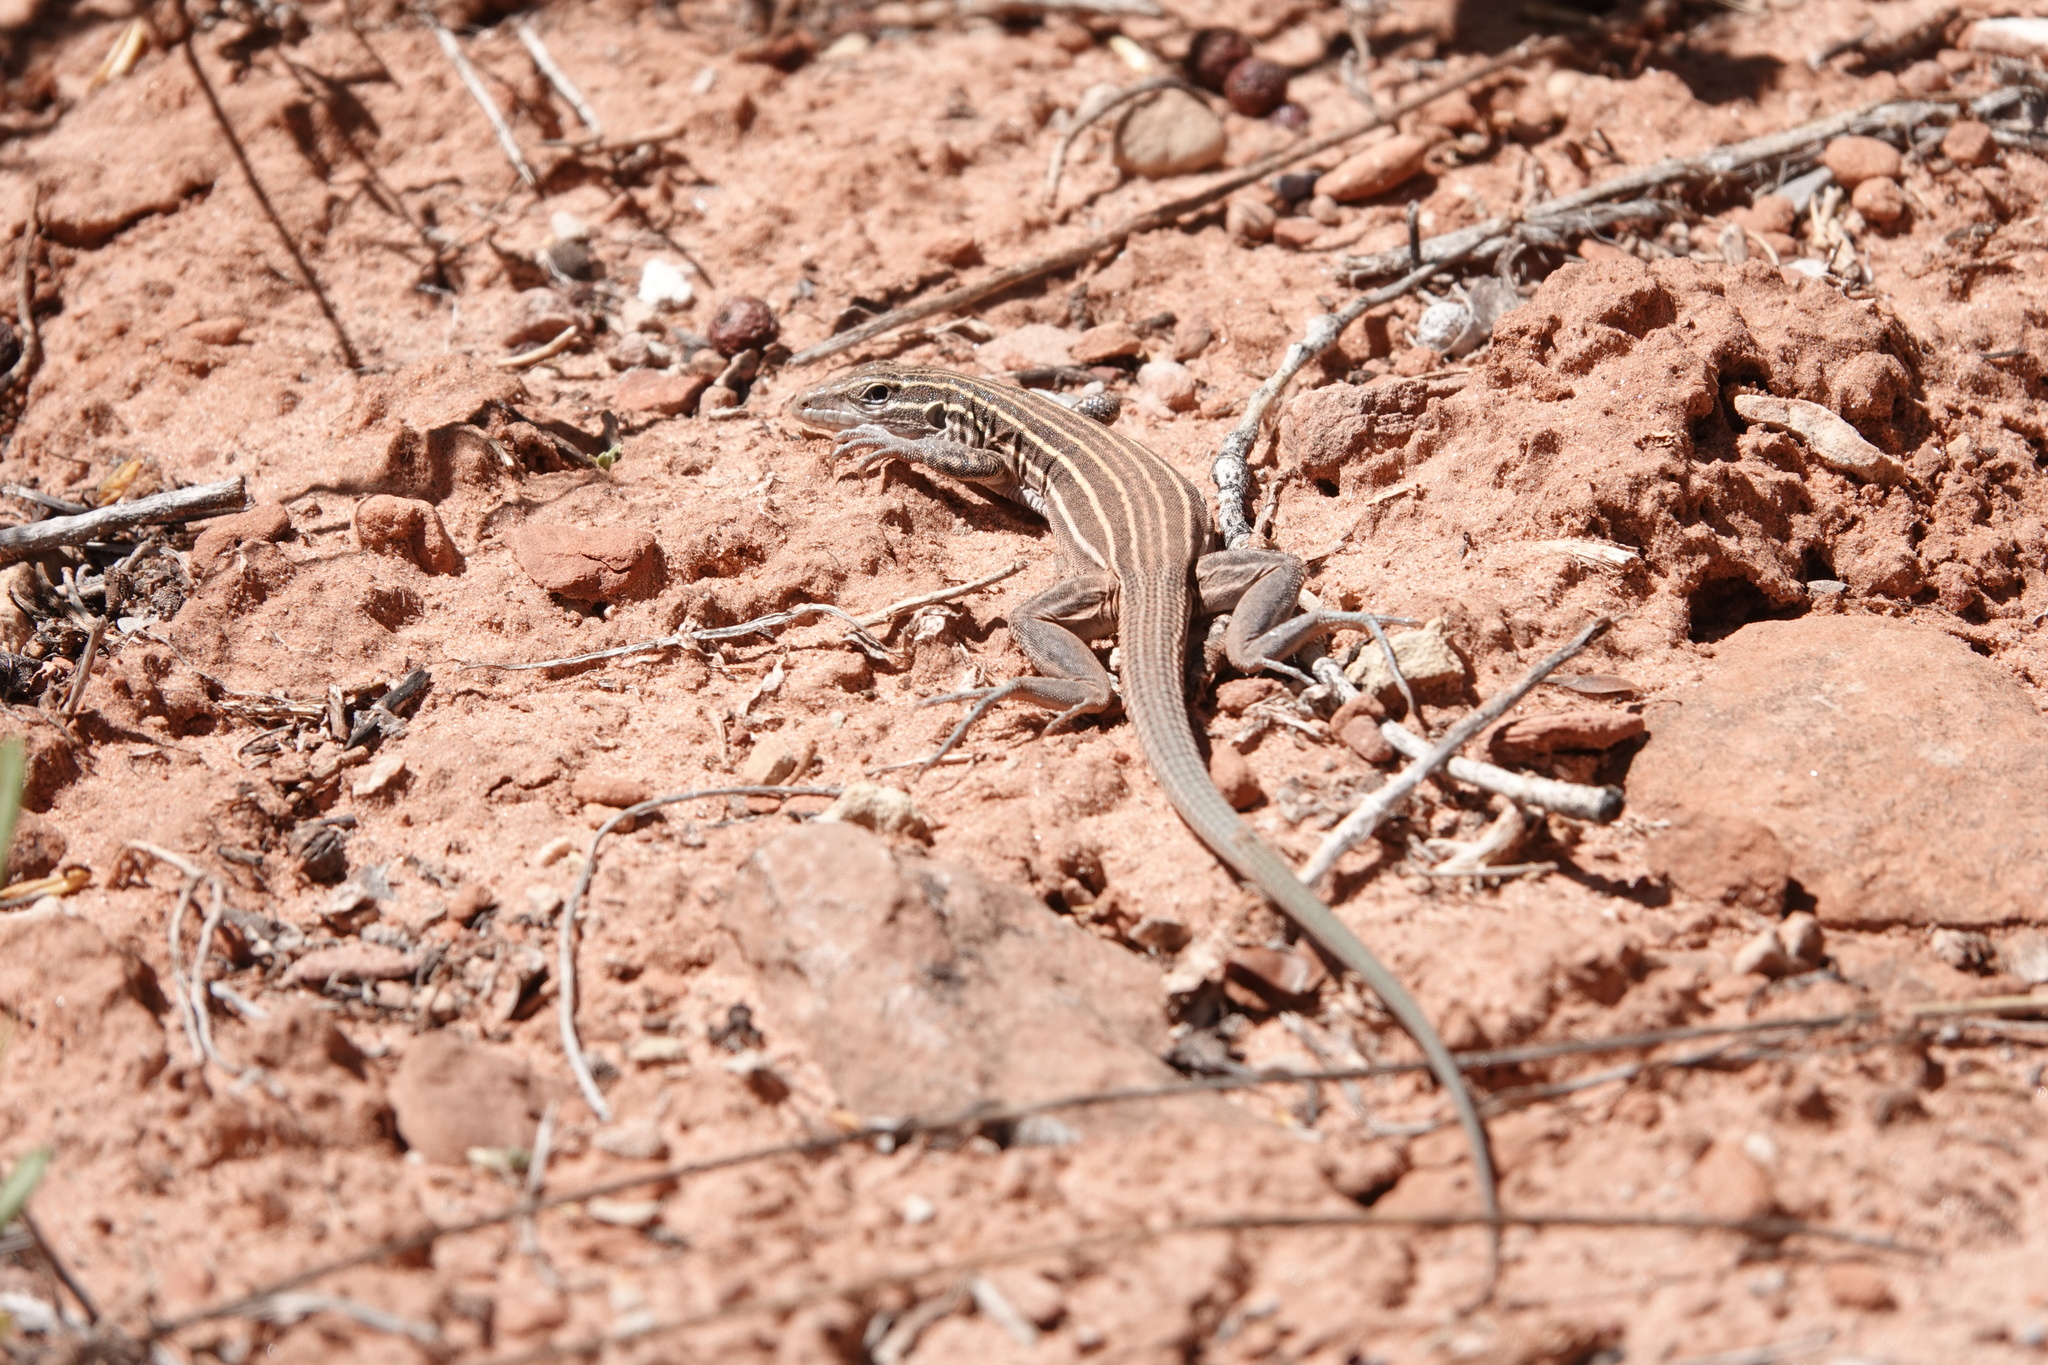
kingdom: Animalia
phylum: Chordata
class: Squamata
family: Teiidae
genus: Aspidoscelis
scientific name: Aspidoscelis velox
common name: Plateau striped whiptail
